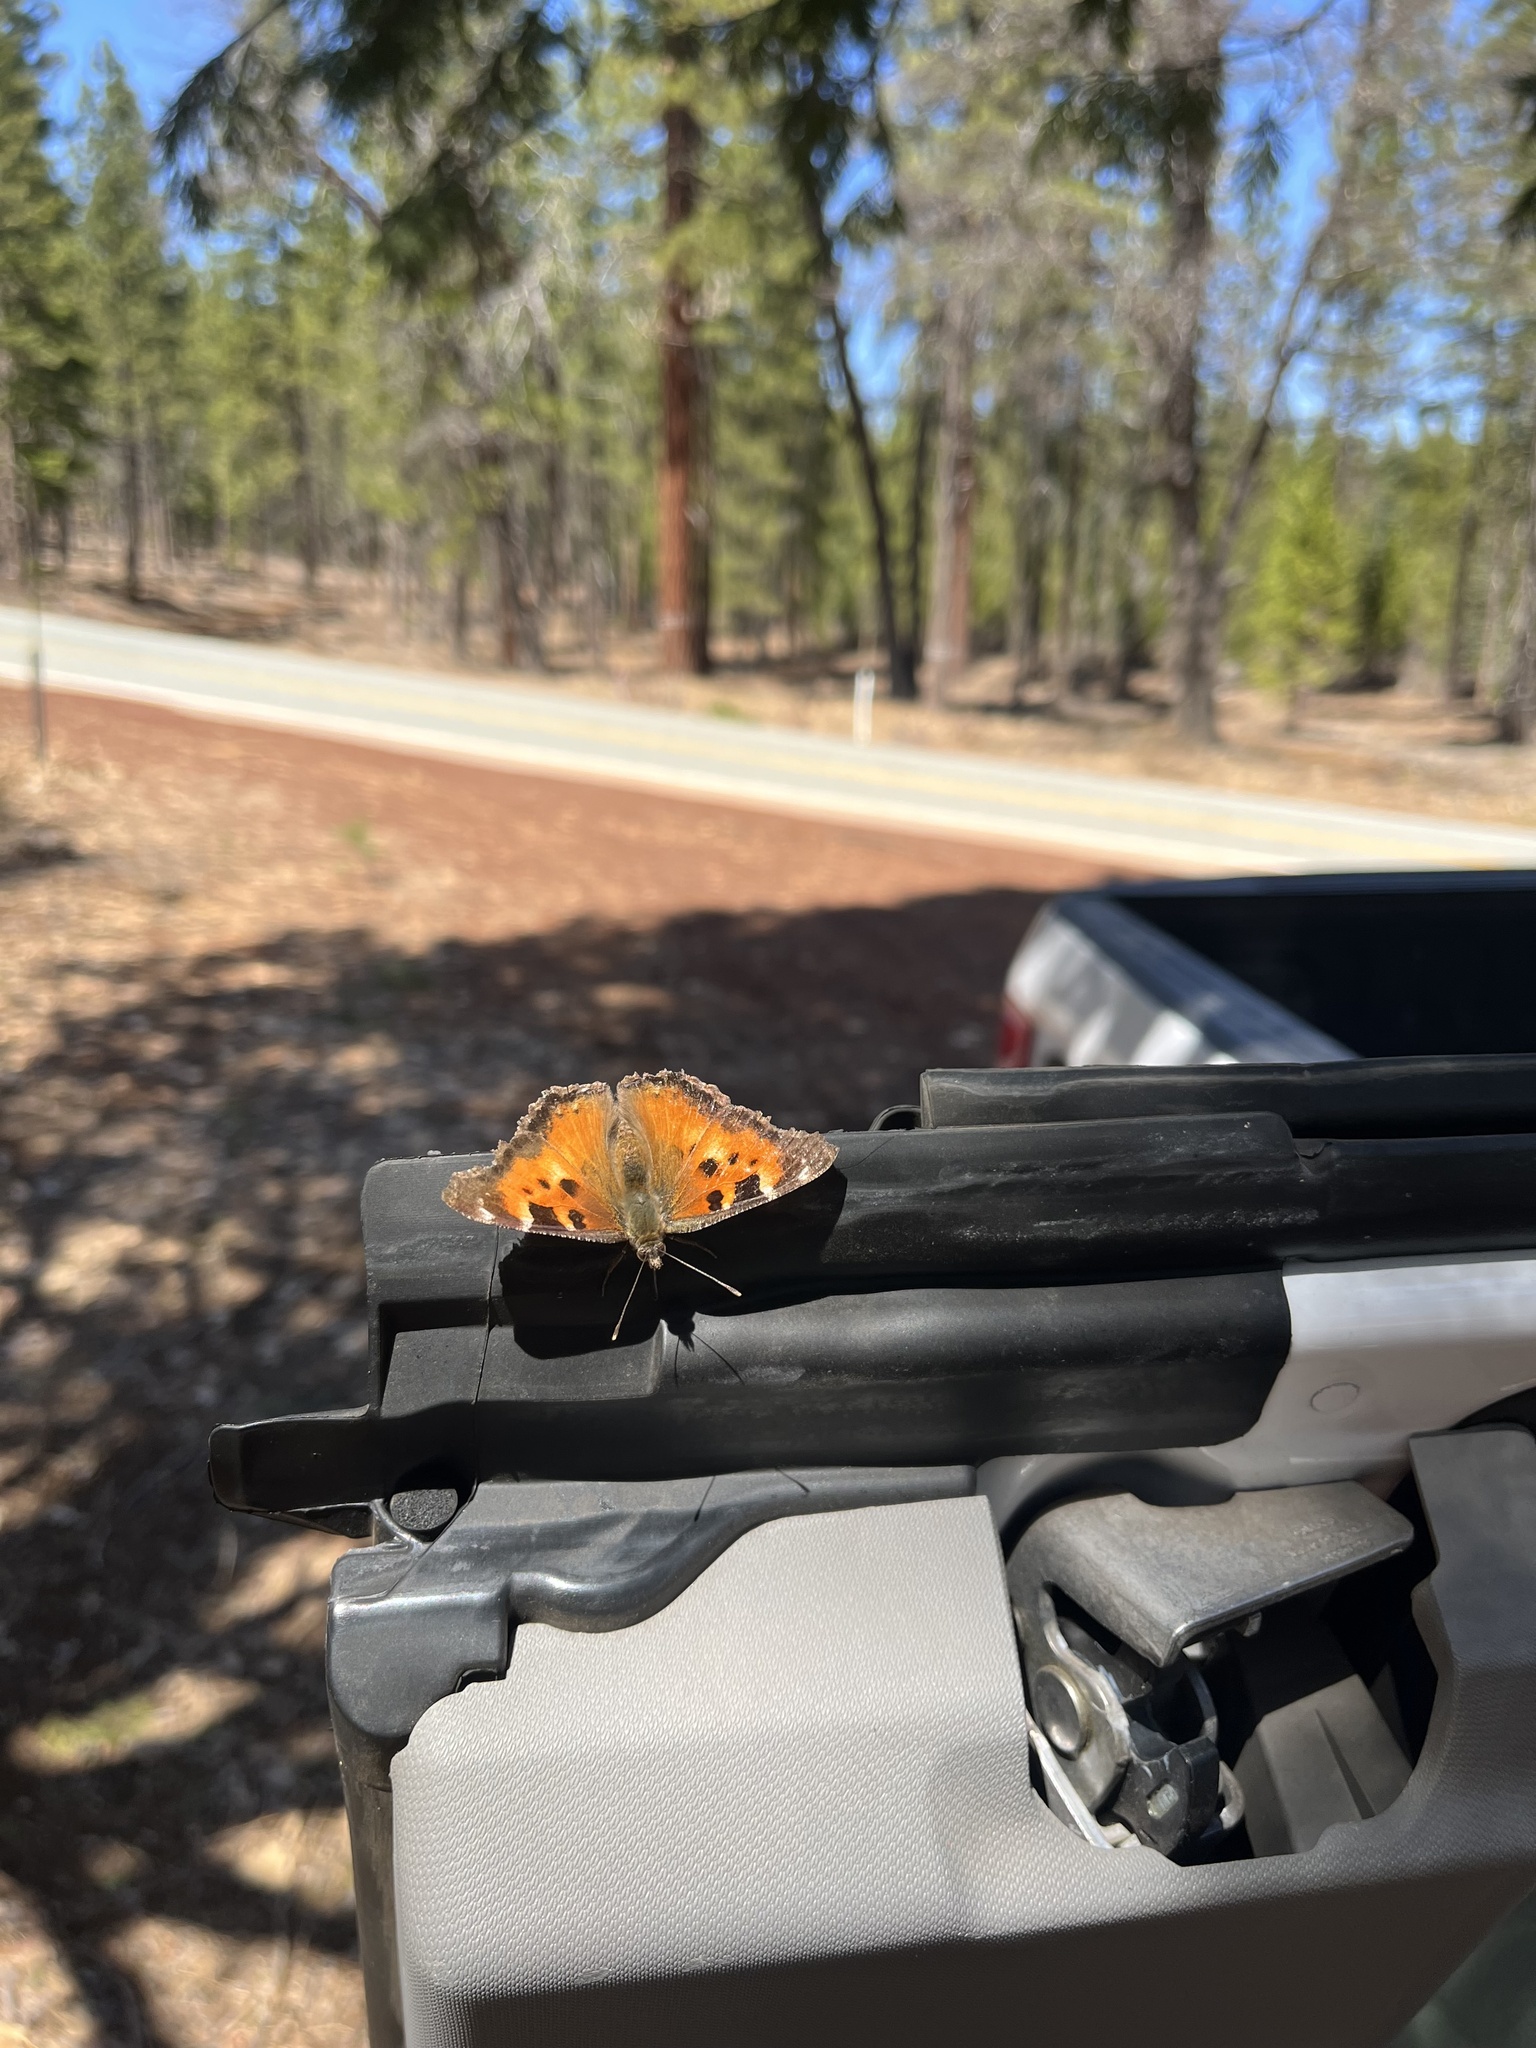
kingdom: Animalia
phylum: Arthropoda
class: Insecta
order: Lepidoptera
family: Nymphalidae
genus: Nymphalis
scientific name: Nymphalis californica
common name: California tortoiseshell
